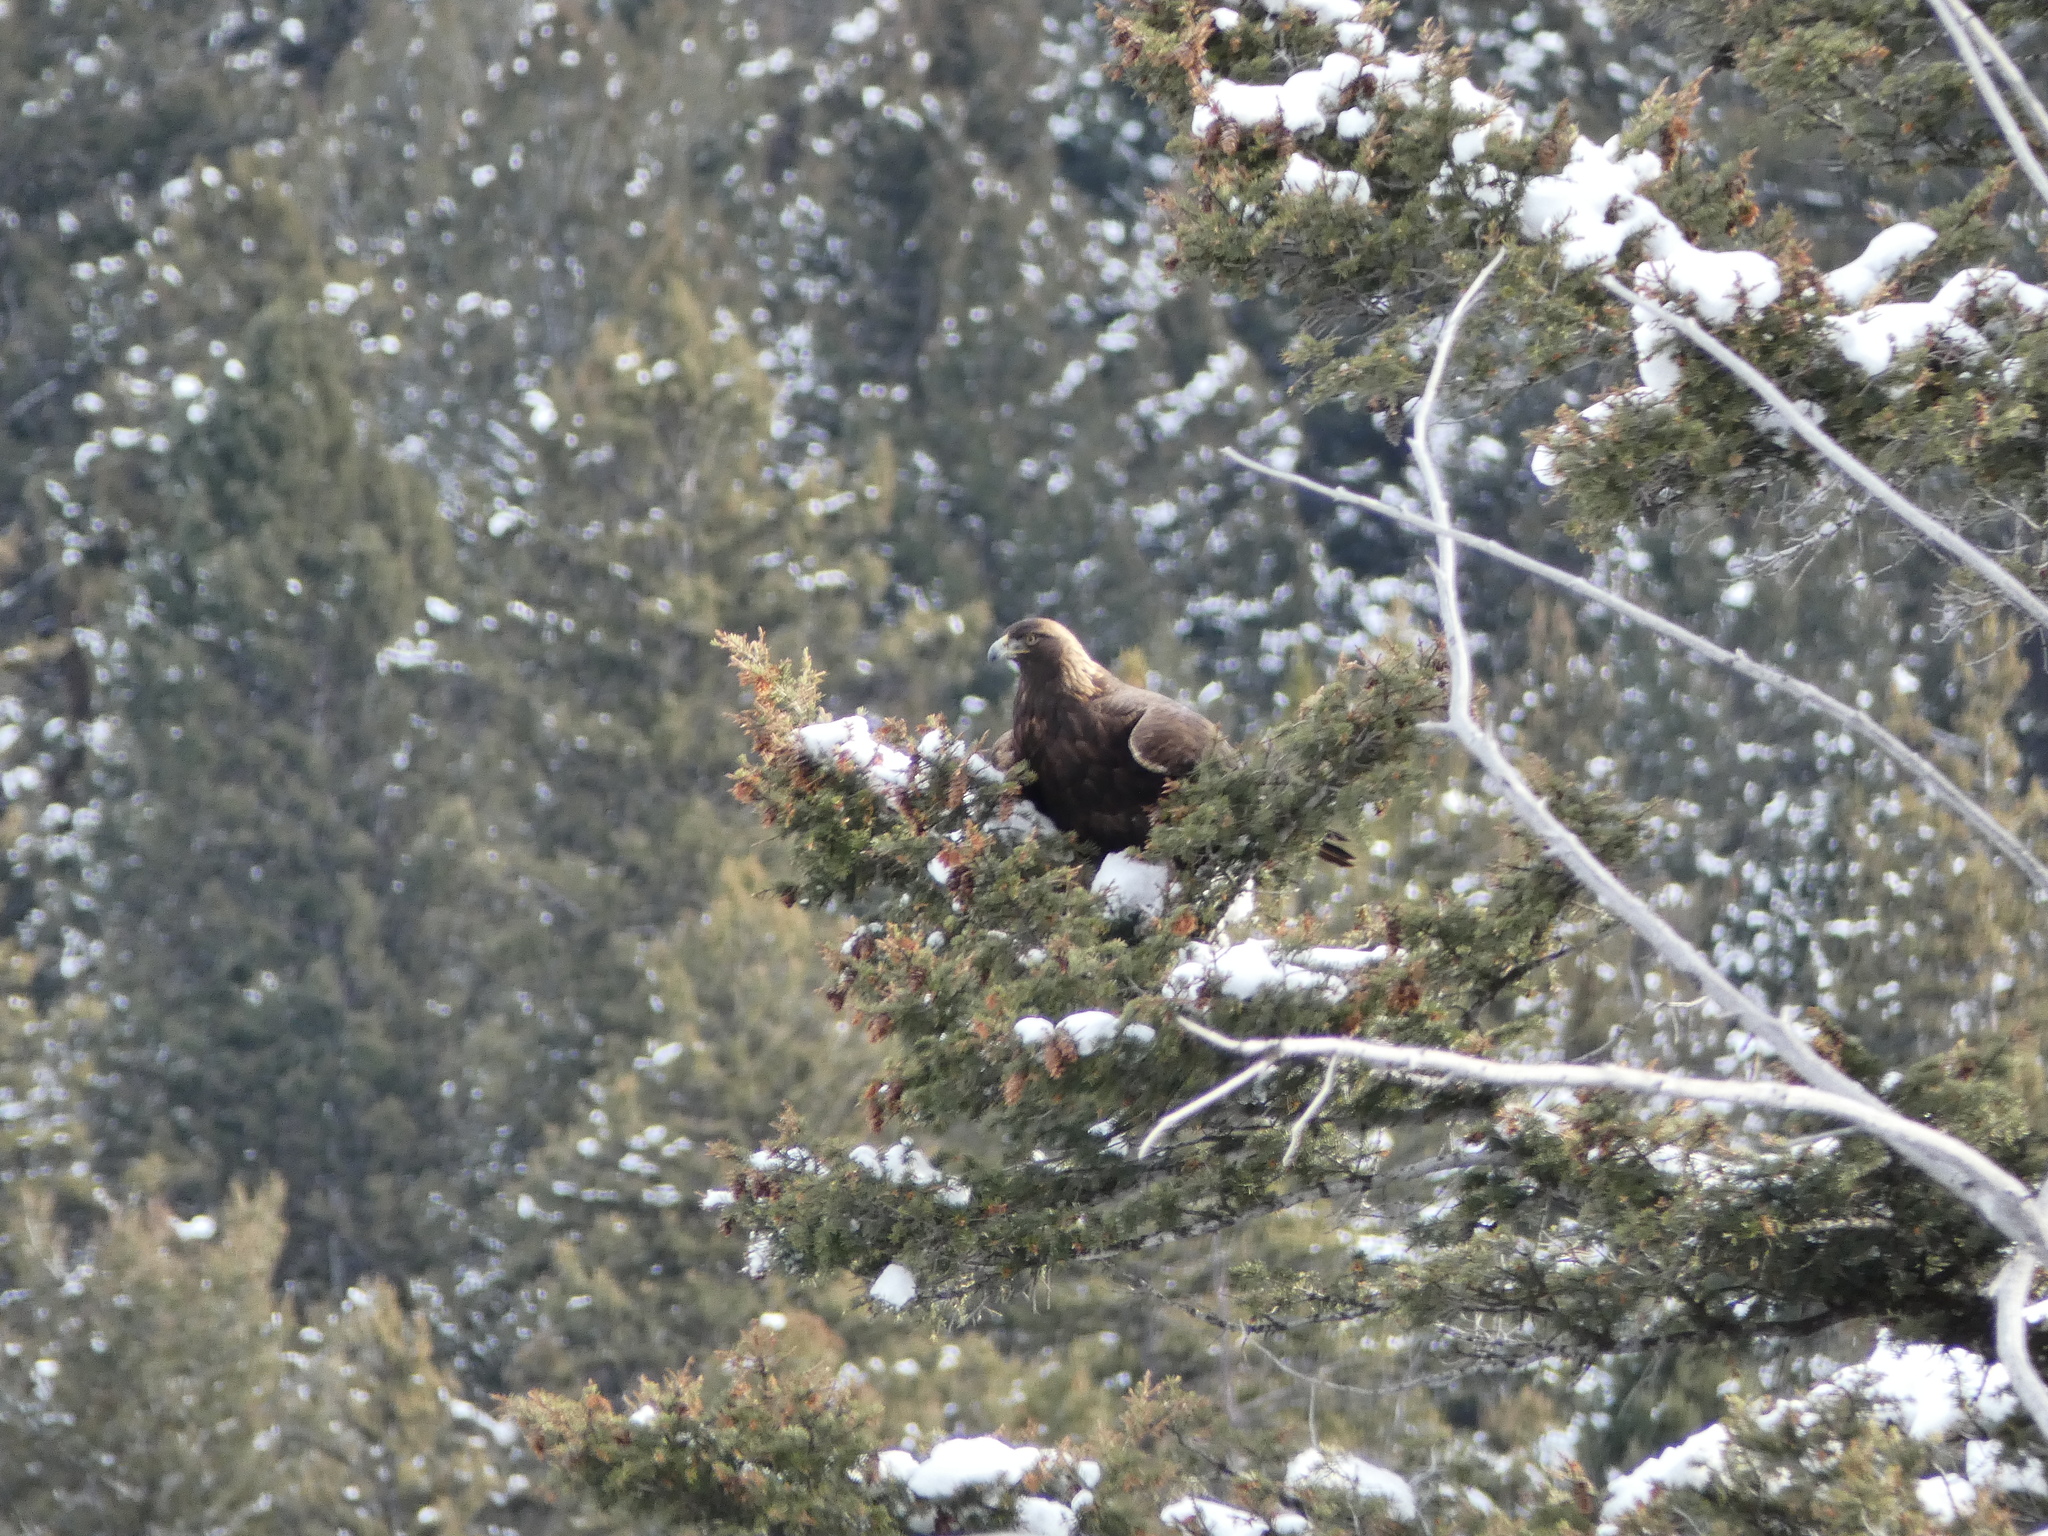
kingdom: Animalia
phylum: Chordata
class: Aves
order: Accipitriformes
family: Accipitridae
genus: Aquila
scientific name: Aquila chrysaetos
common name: Golden eagle
